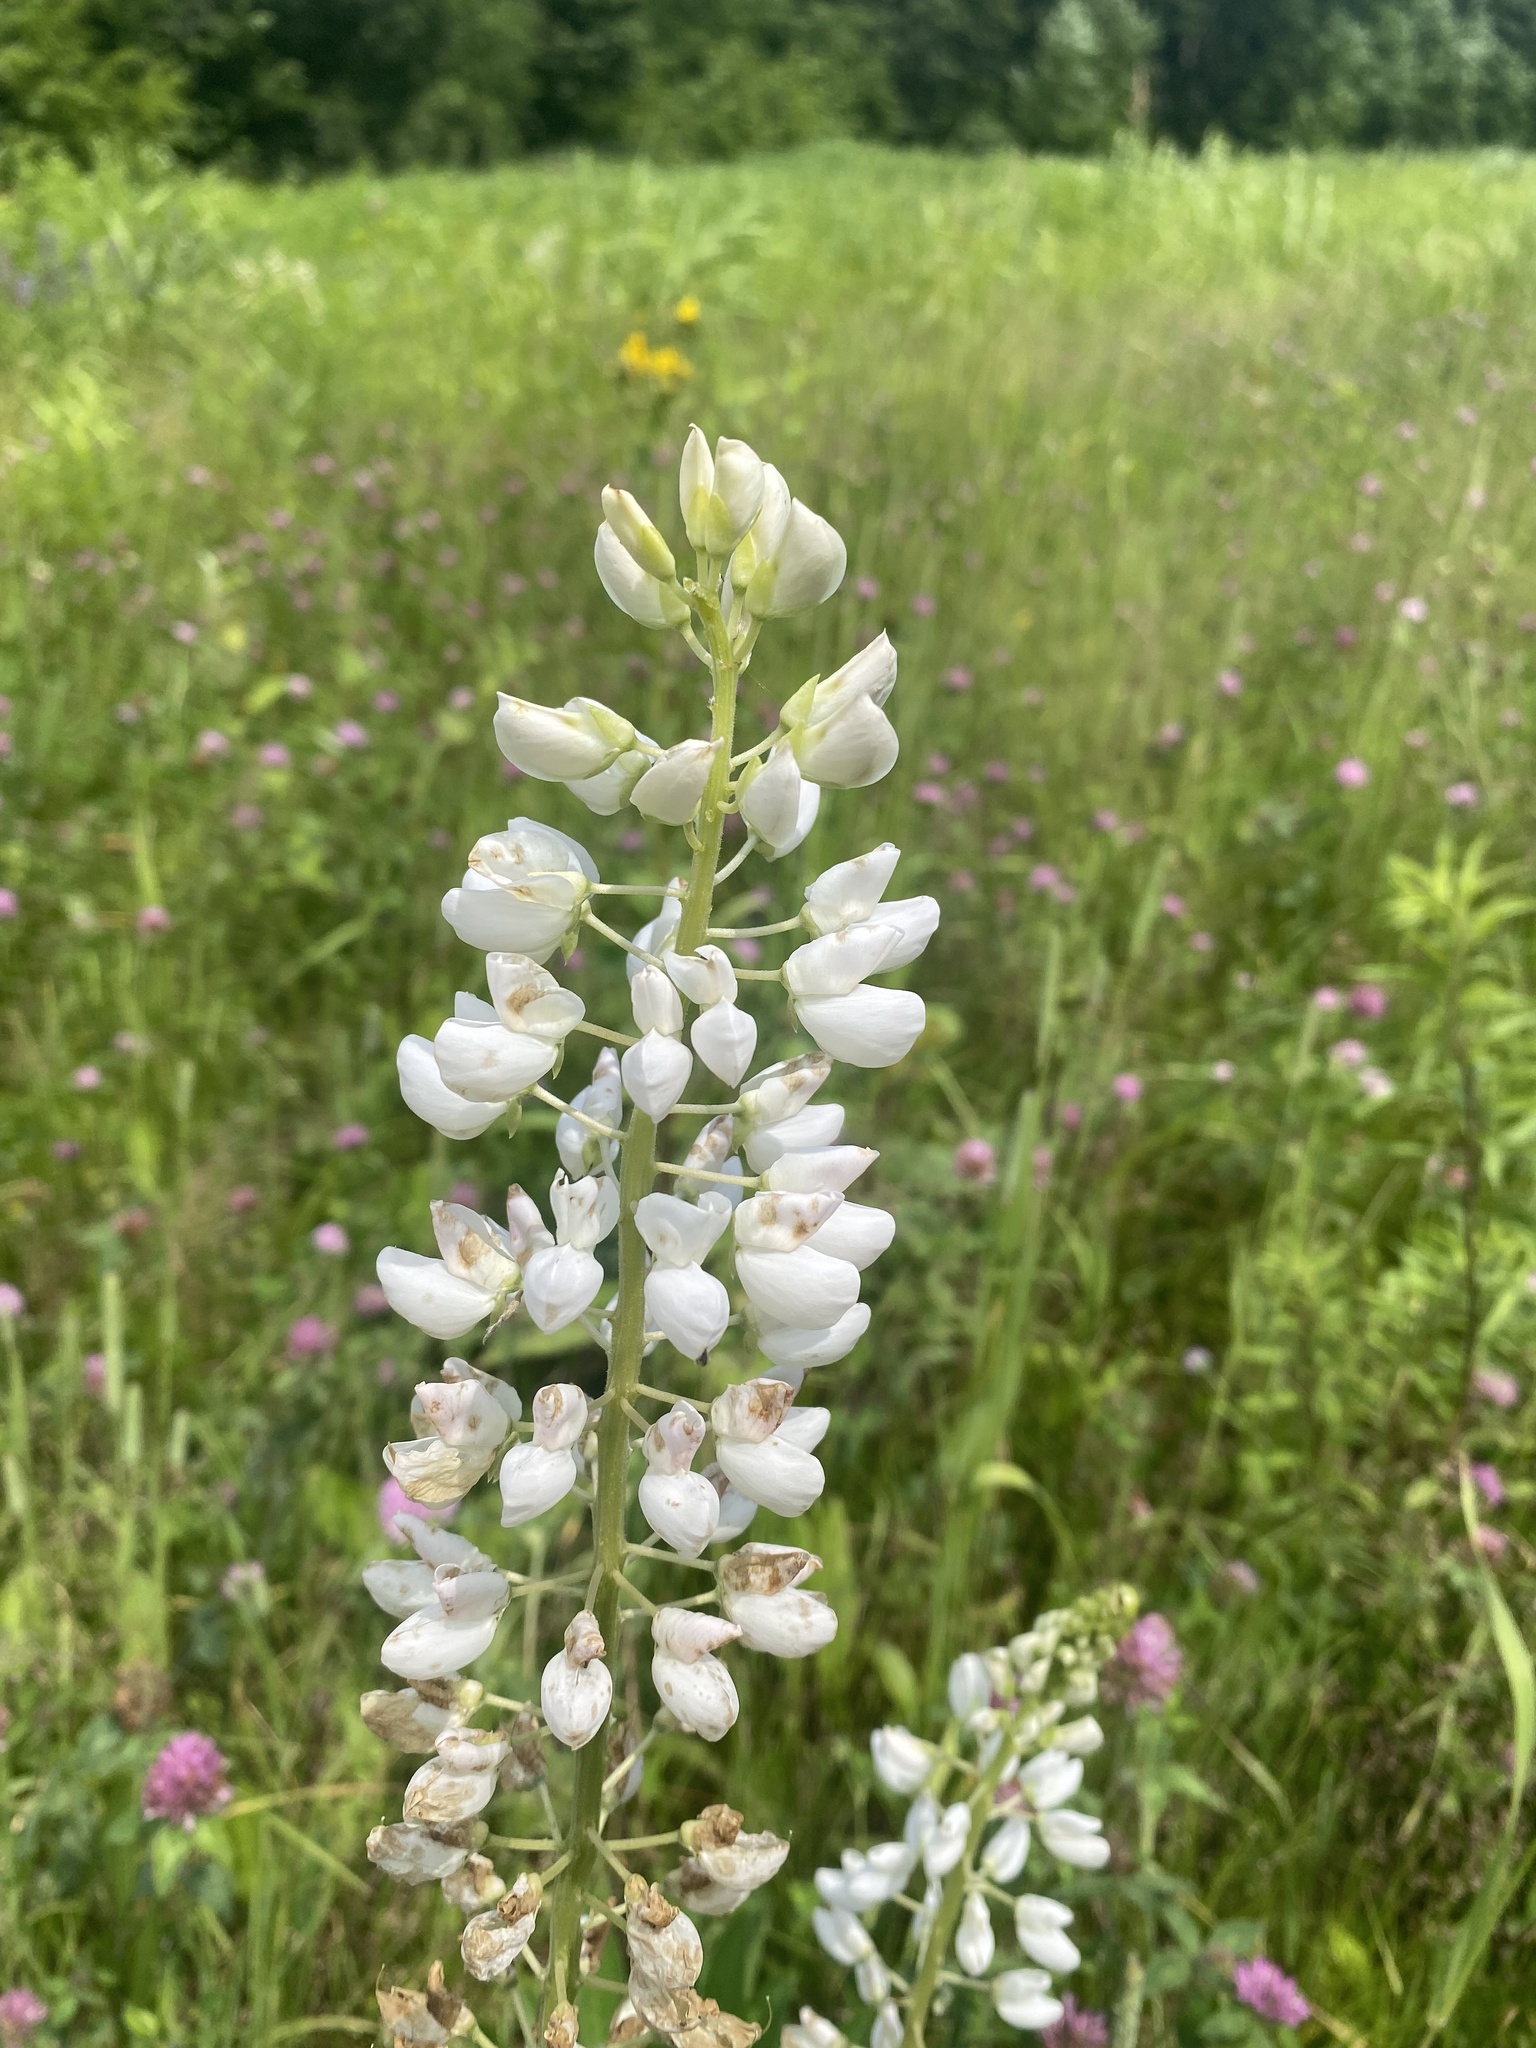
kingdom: Plantae
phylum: Tracheophyta
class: Magnoliopsida
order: Fabales
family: Fabaceae
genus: Lupinus
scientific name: Lupinus polyphyllus
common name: Garden lupin
